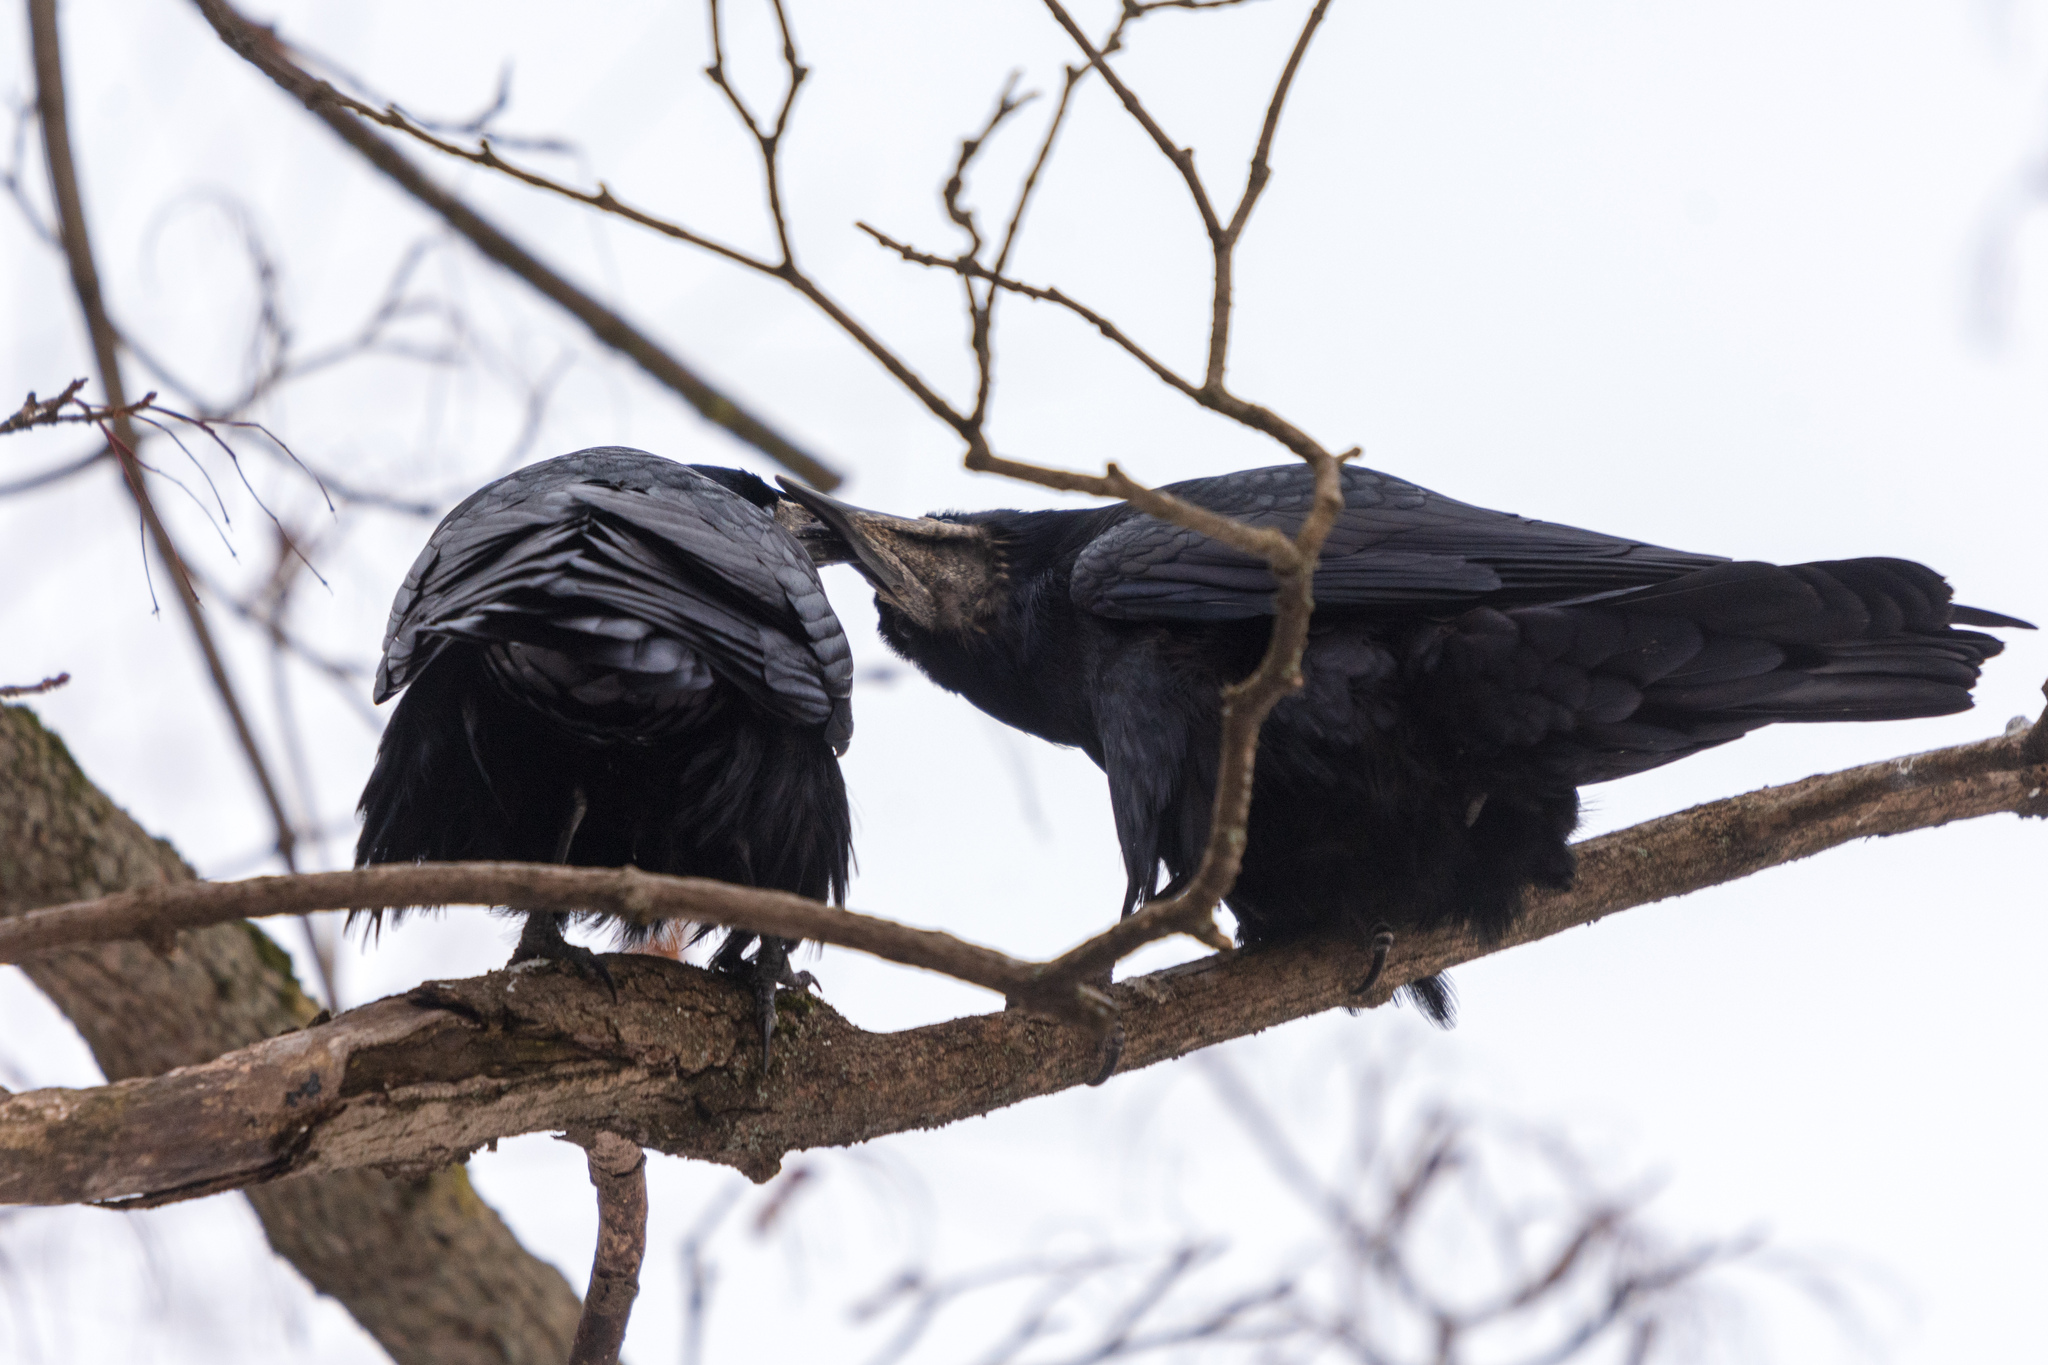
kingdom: Animalia
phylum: Chordata
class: Aves
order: Passeriformes
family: Corvidae
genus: Corvus
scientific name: Corvus frugilegus
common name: Rook
